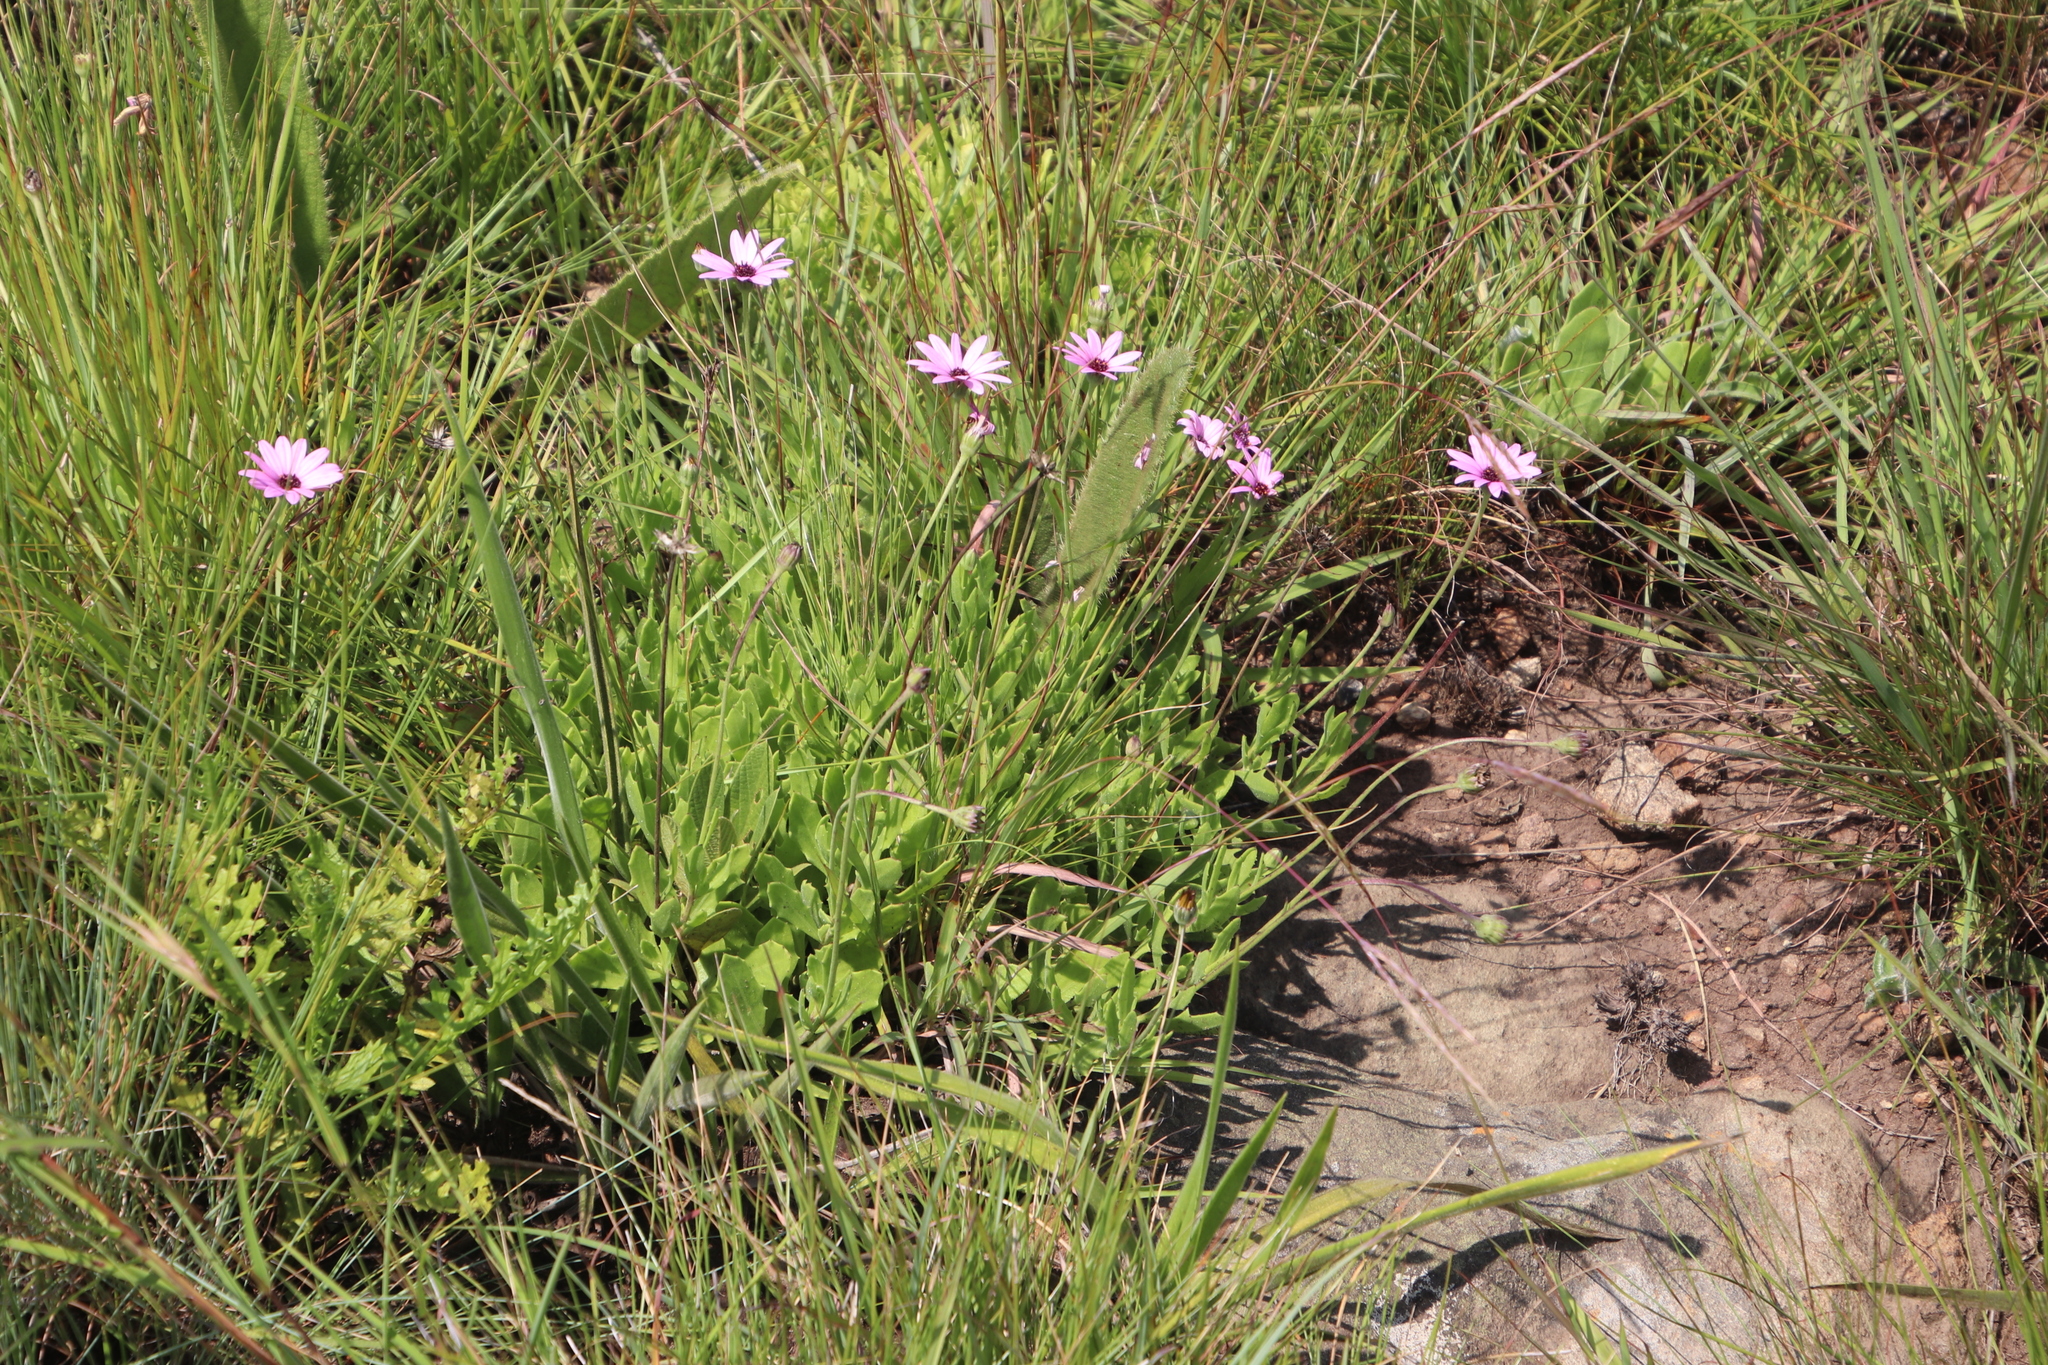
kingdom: Plantae
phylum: Tracheophyta
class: Magnoliopsida
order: Asterales
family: Asteraceae
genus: Dimorphotheca
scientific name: Dimorphotheca jucunda
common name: Osteospermum
